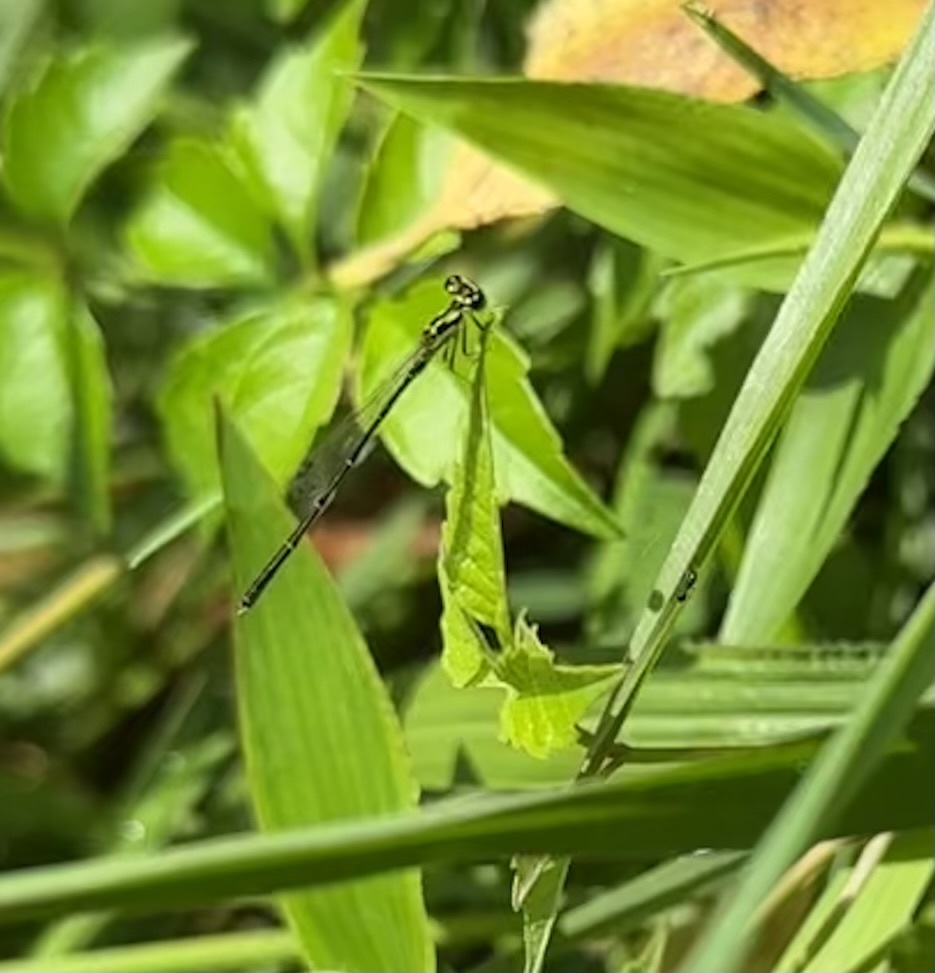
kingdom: Animalia
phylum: Arthropoda
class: Insecta
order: Odonata
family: Coenagrionidae
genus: Ischnura
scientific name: Ischnura posita
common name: Fragile forktail
